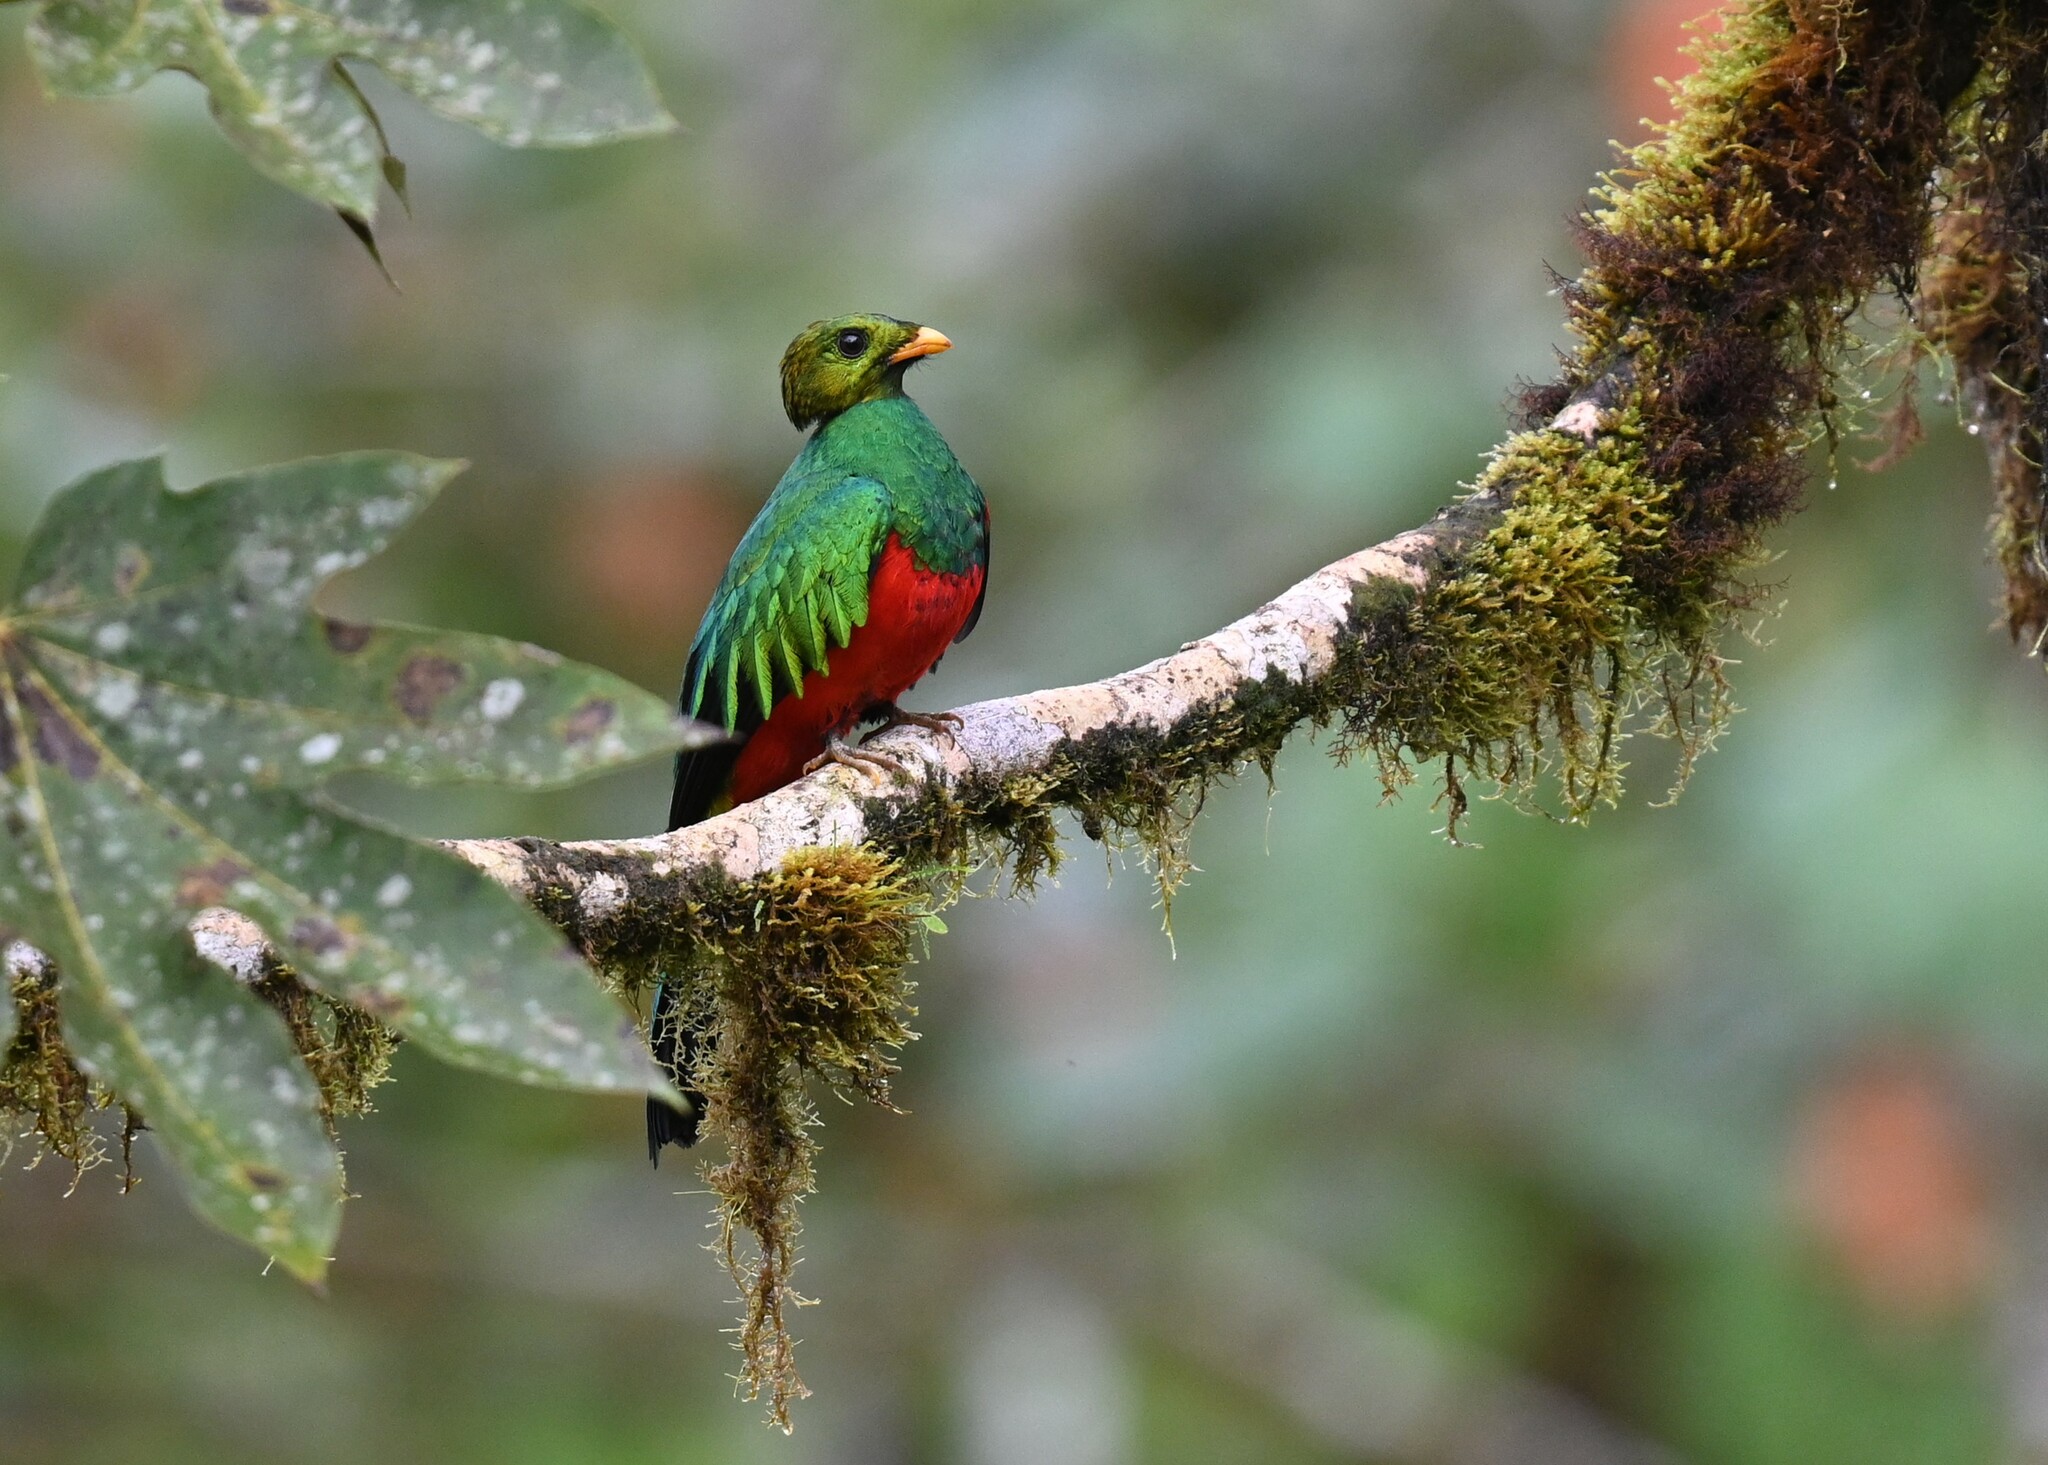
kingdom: Animalia
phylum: Chordata
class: Aves
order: Trogoniformes
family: Trogonidae
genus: Pharomachrus
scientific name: Pharomachrus auriceps
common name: Golden-headed quetzal
